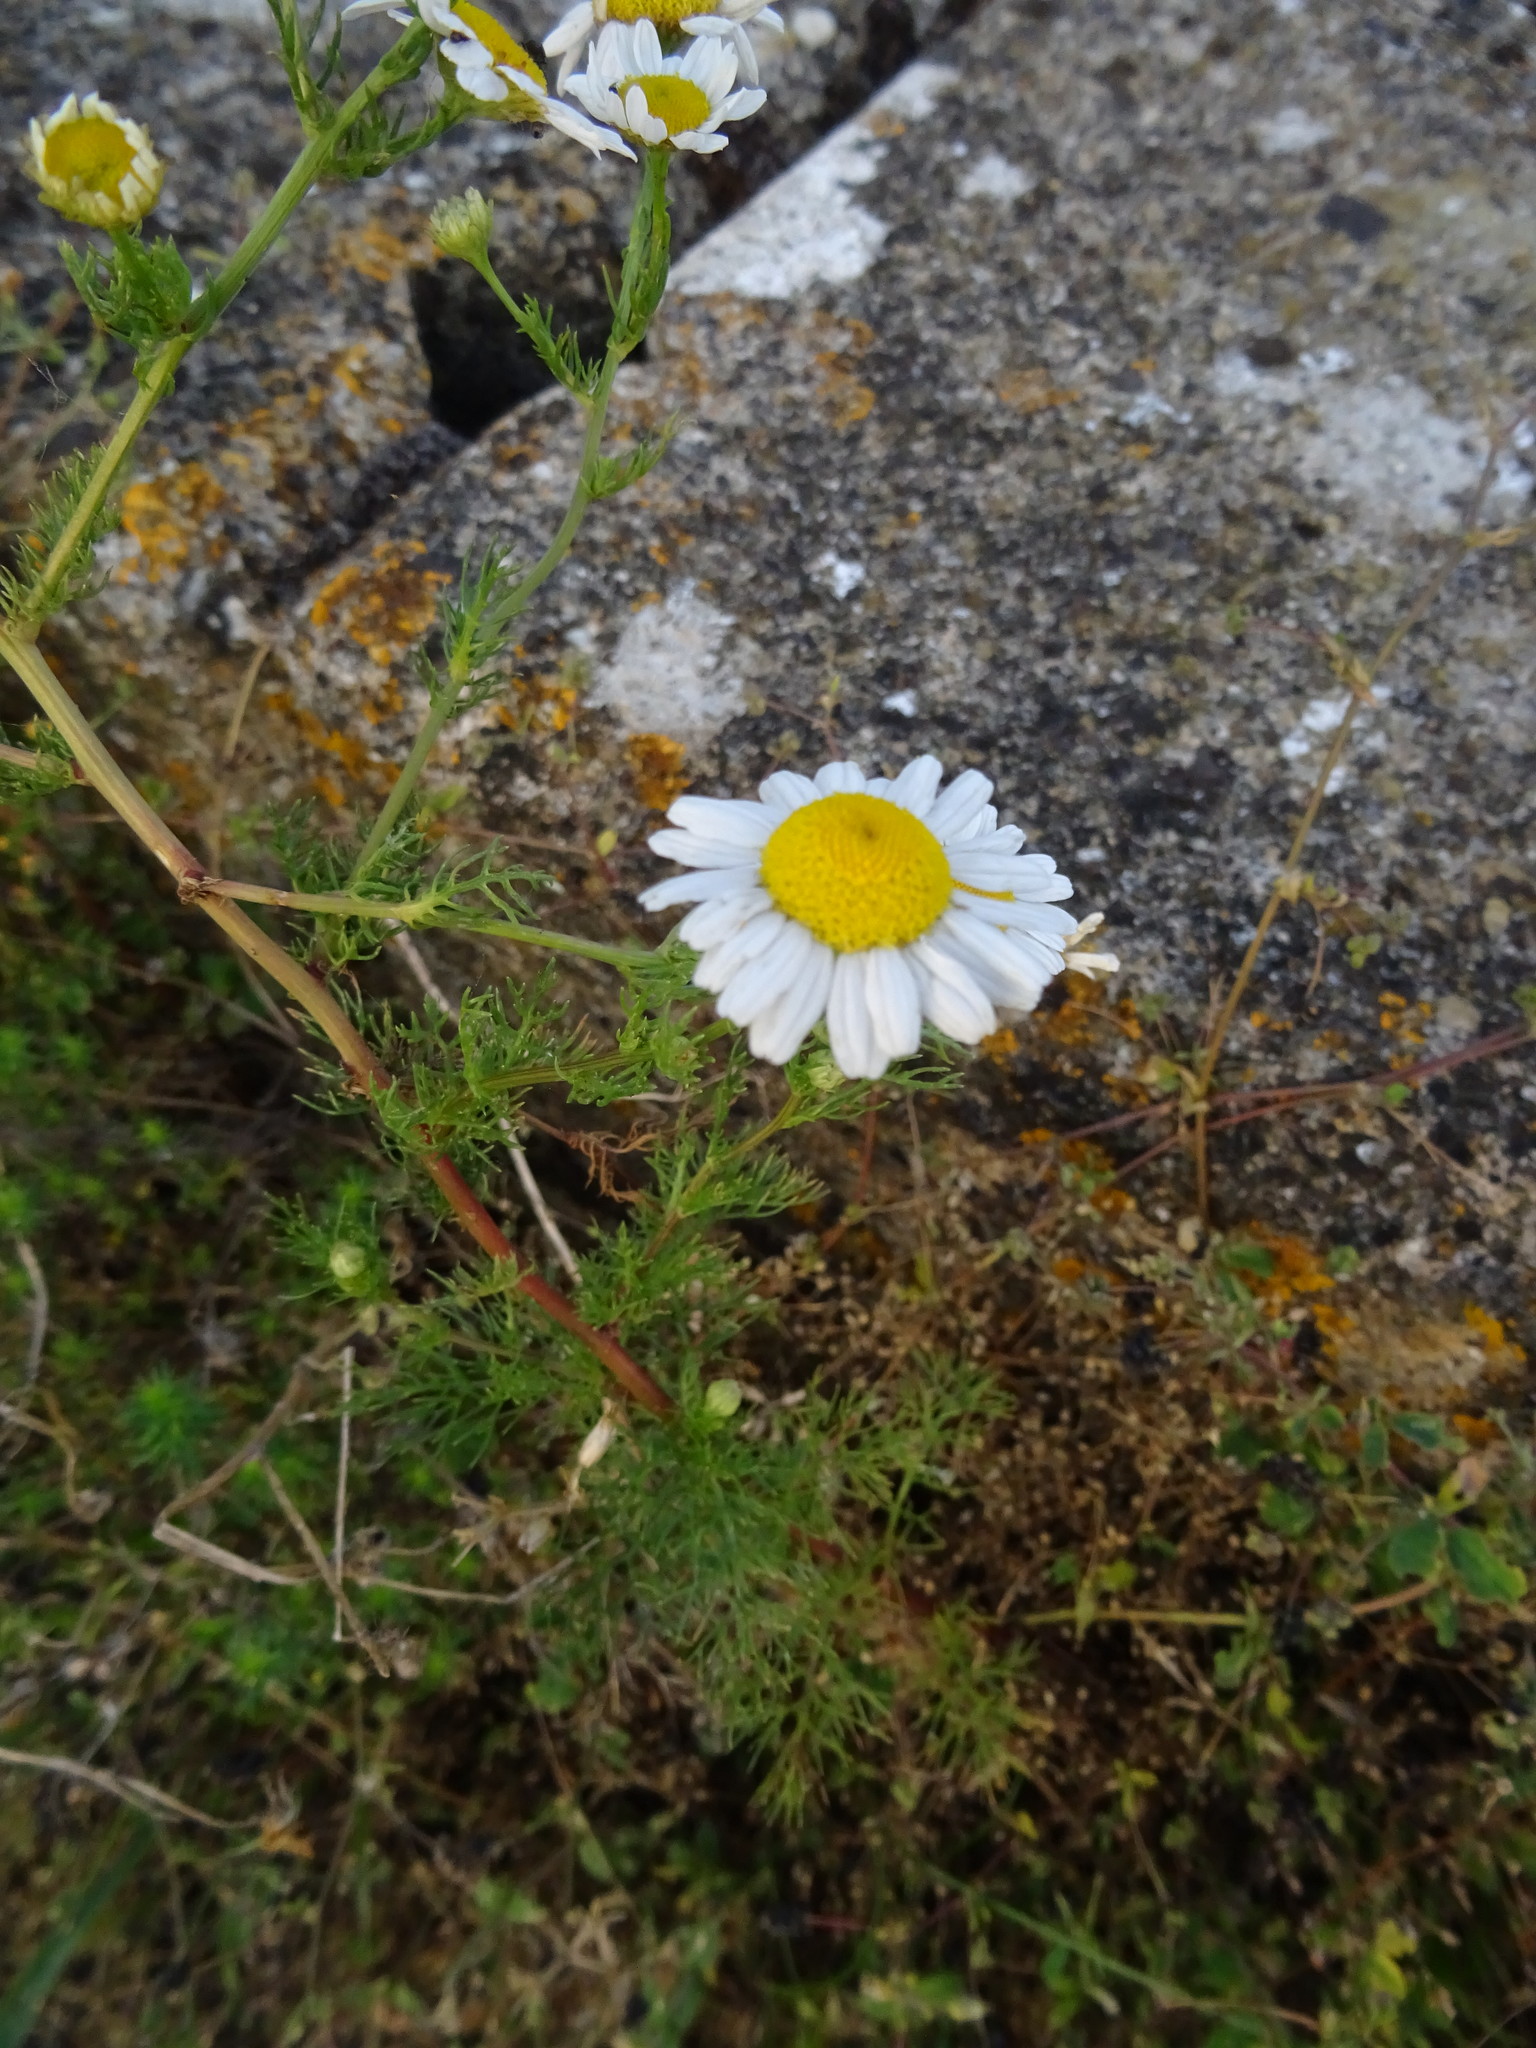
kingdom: Plantae
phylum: Tracheophyta
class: Magnoliopsida
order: Asterales
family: Asteraceae
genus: Tripleurospermum
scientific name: Tripleurospermum inodorum
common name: Scentless mayweed
